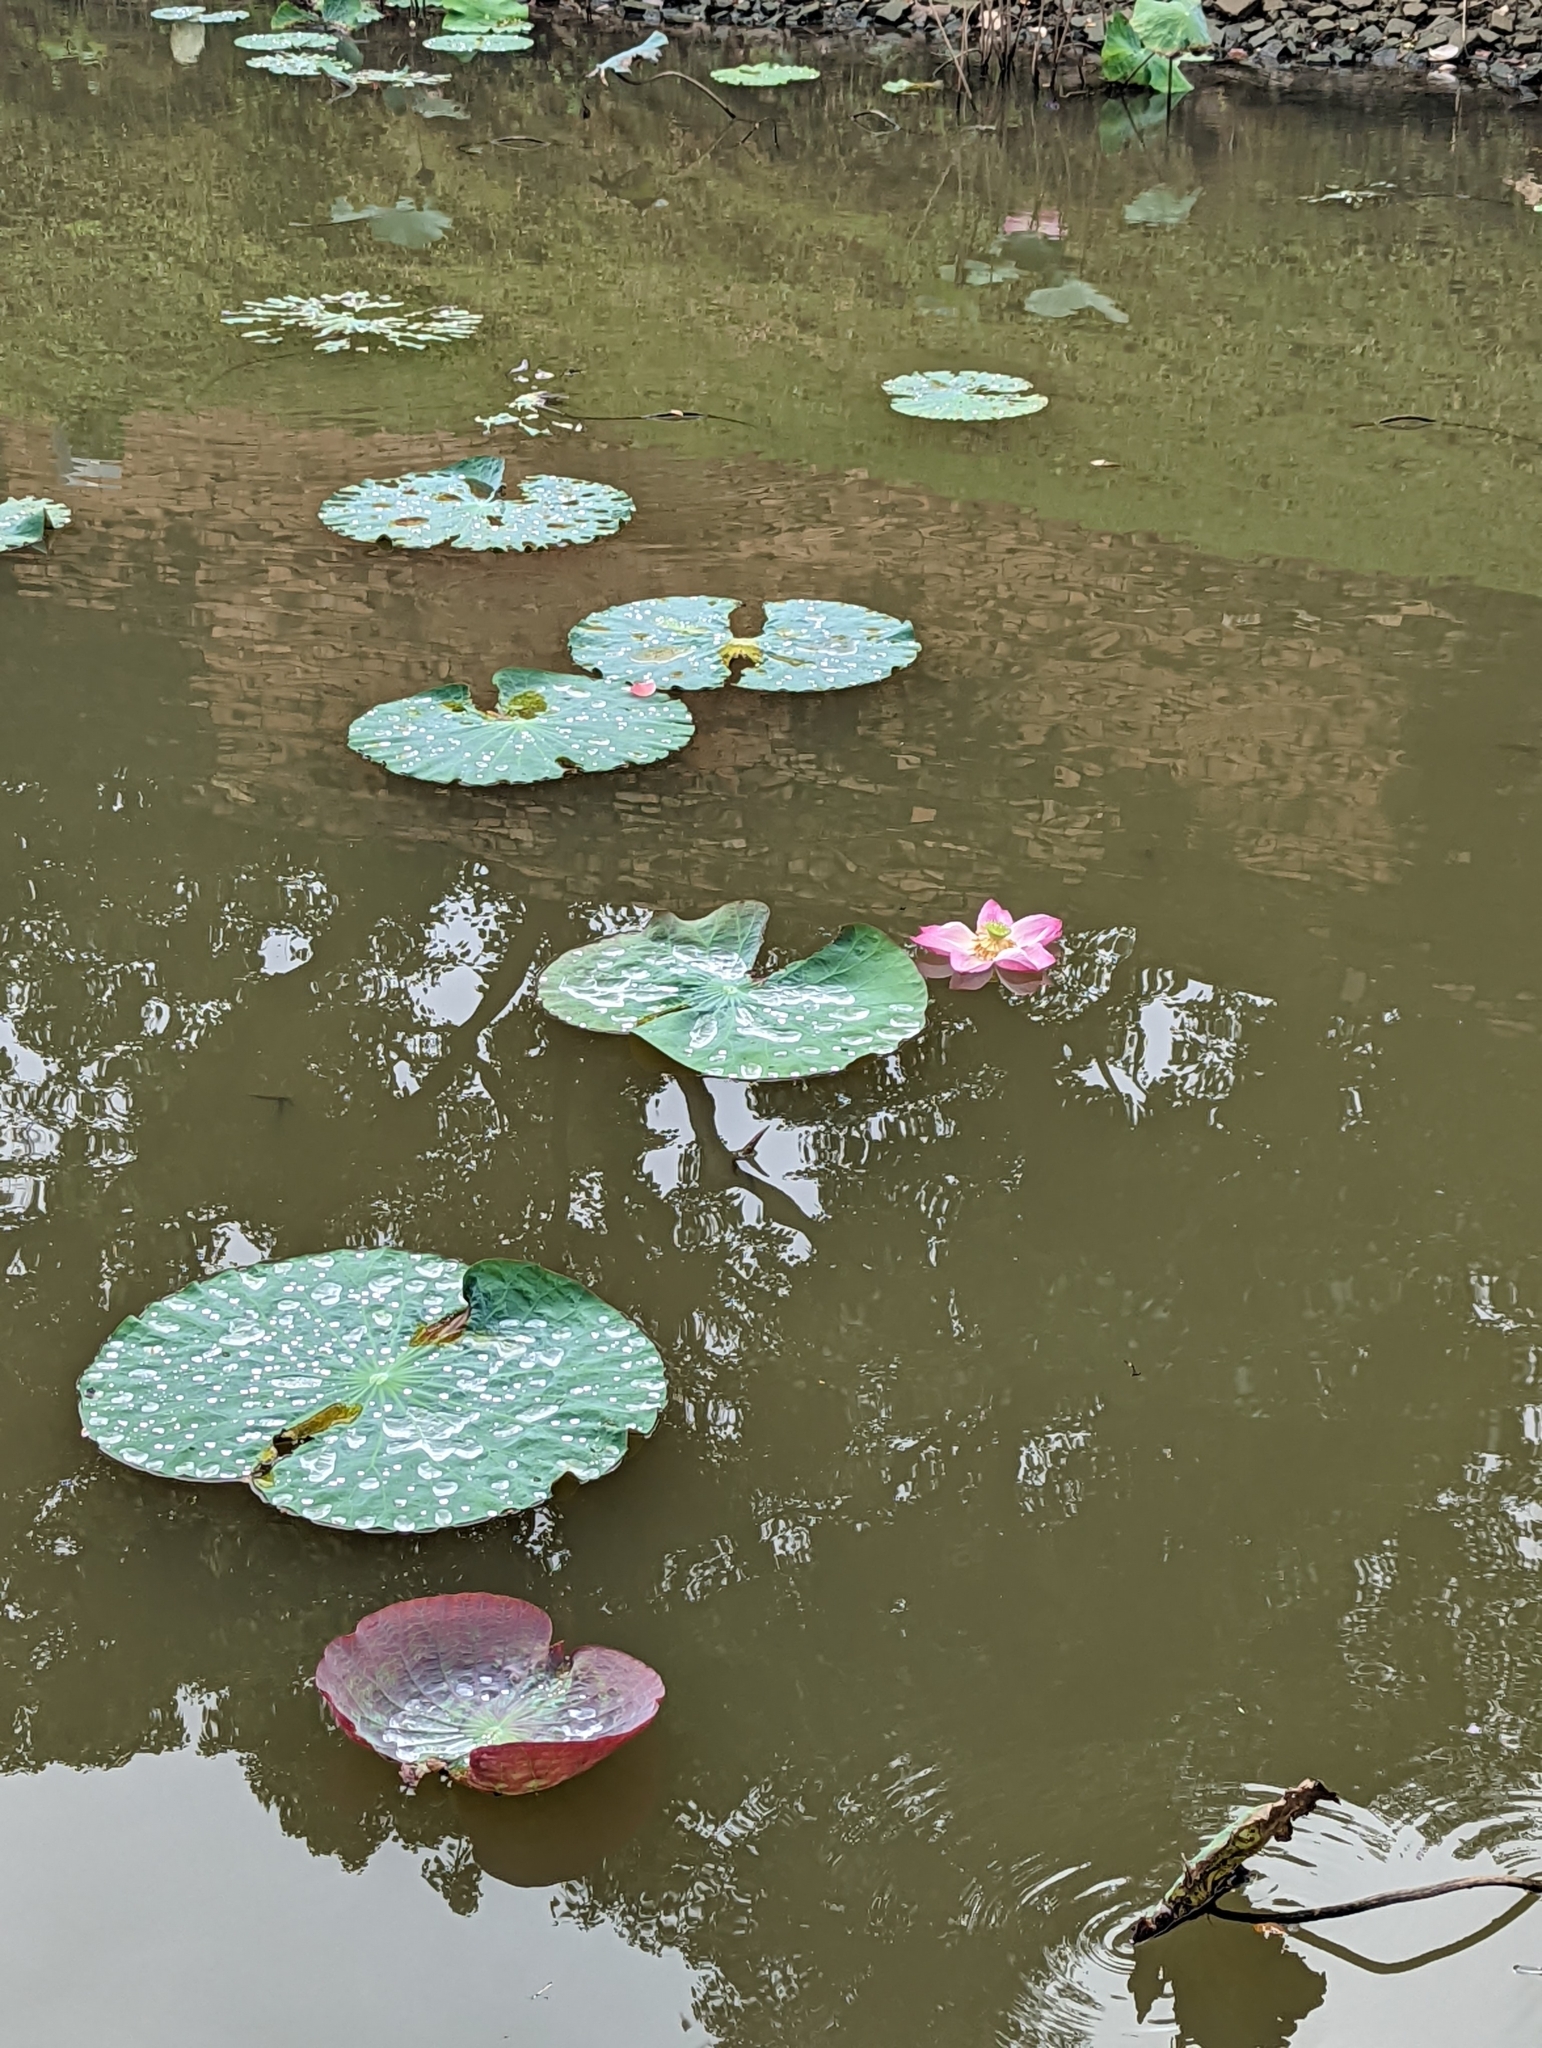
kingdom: Plantae
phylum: Tracheophyta
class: Magnoliopsida
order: Proteales
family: Nelumbonaceae
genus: Nelumbo
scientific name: Nelumbo nucifera
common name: Sacred lotus
